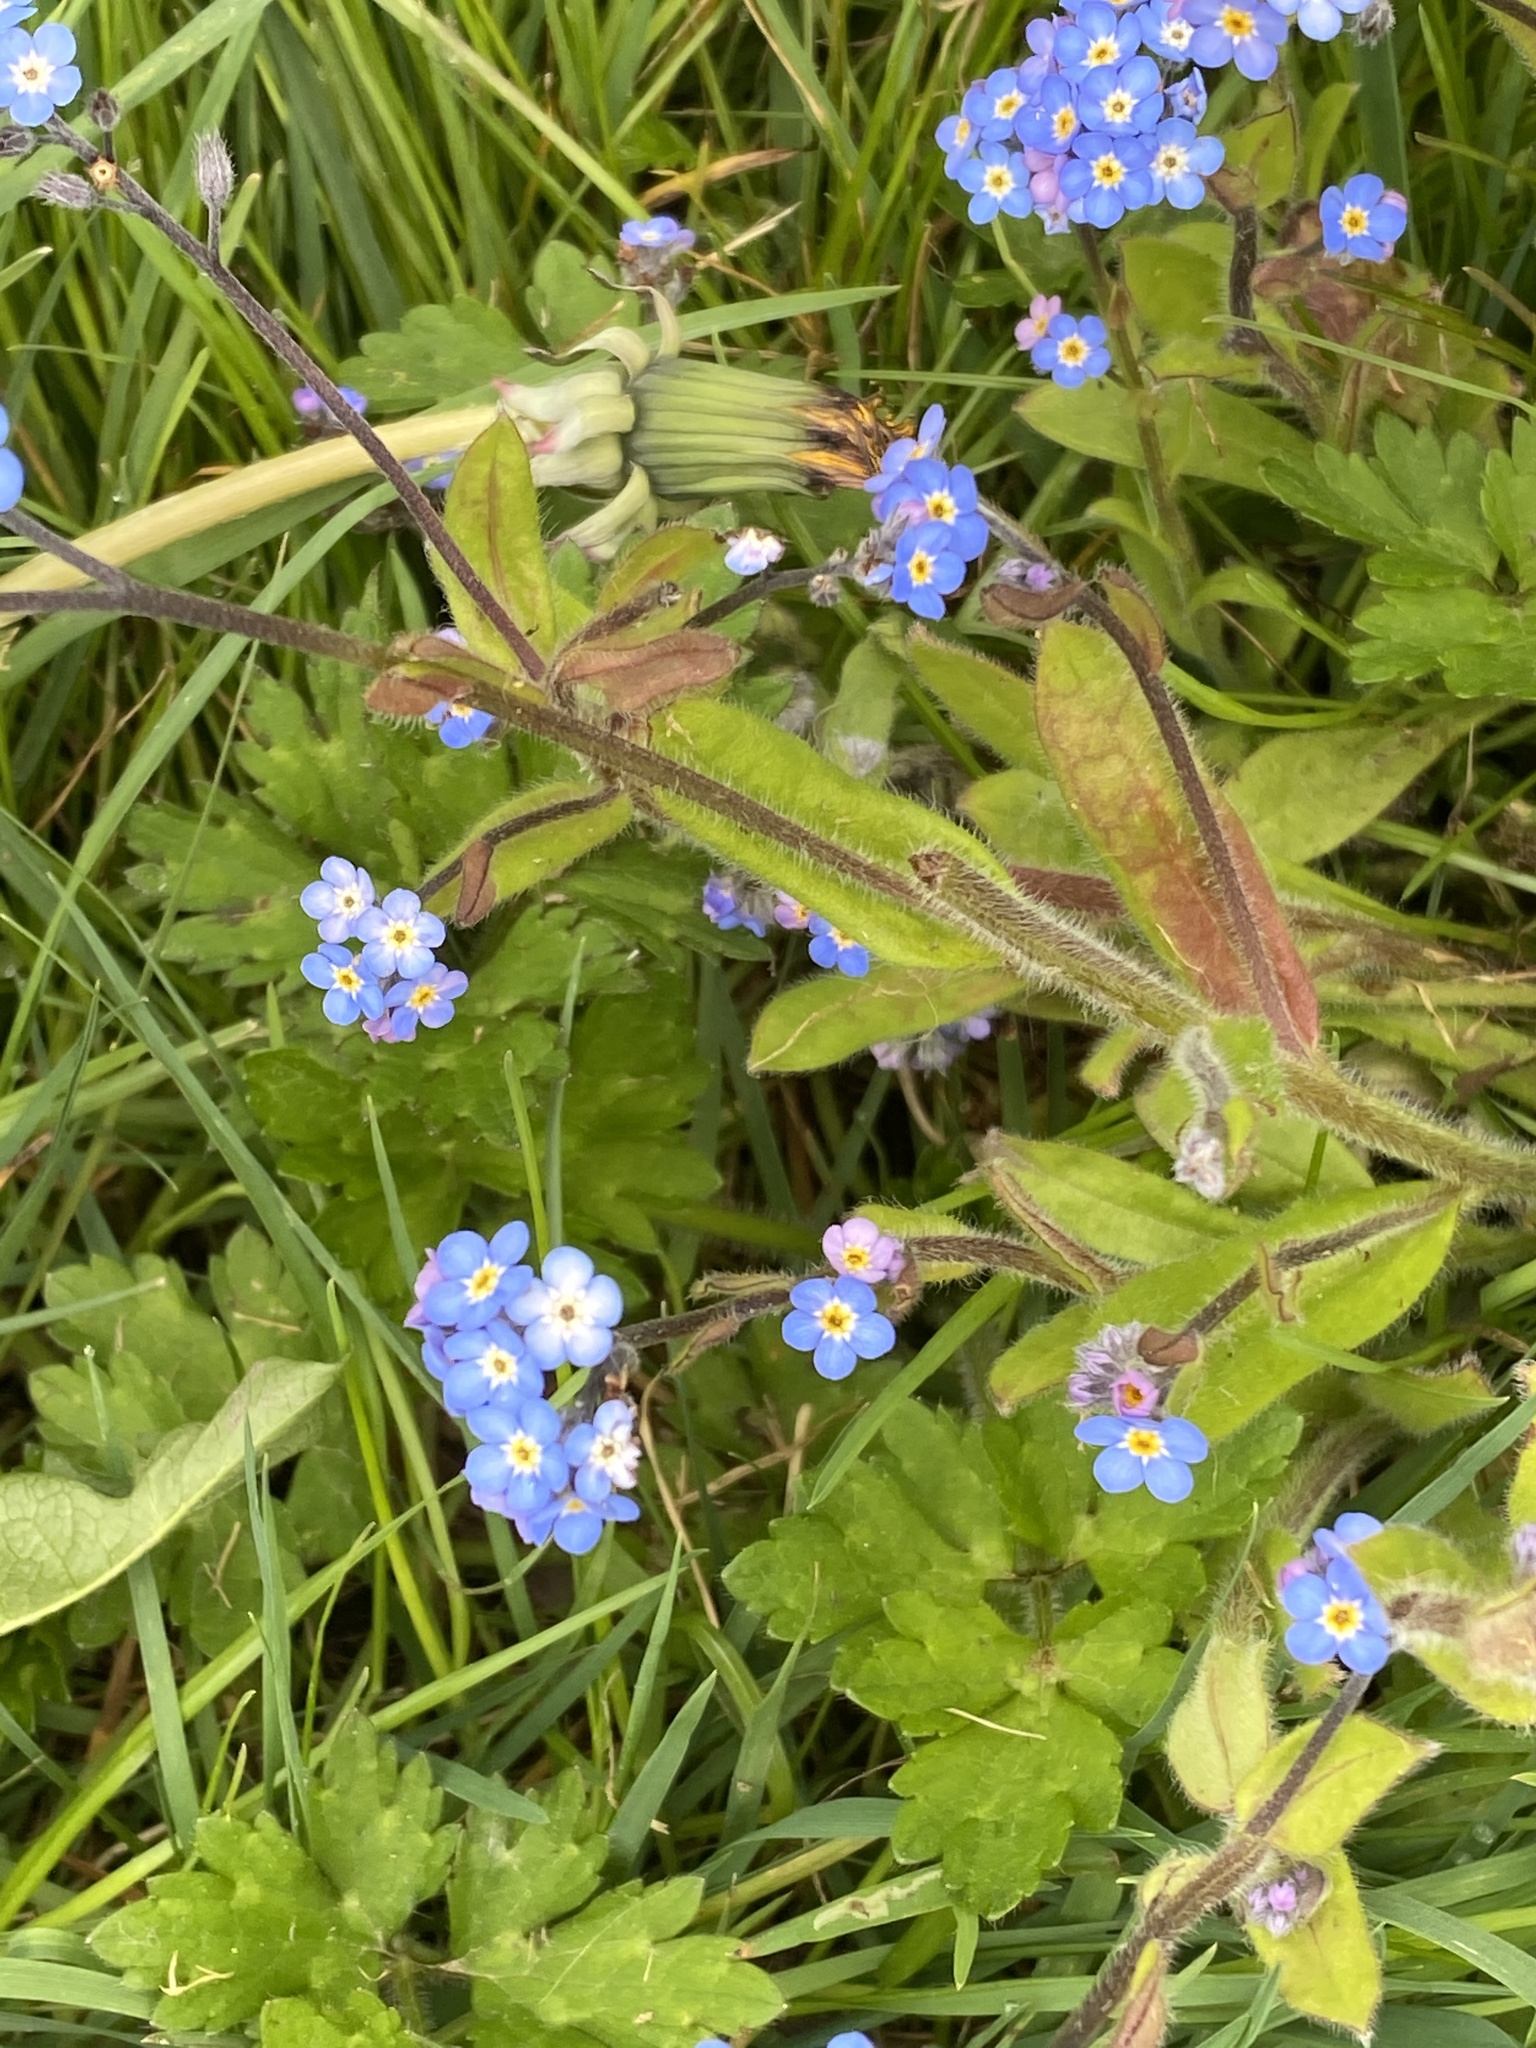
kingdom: Plantae
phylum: Tracheophyta
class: Magnoliopsida
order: Boraginales
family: Boraginaceae
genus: Myosotis
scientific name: Myosotis arvensis
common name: Field forget-me-not
